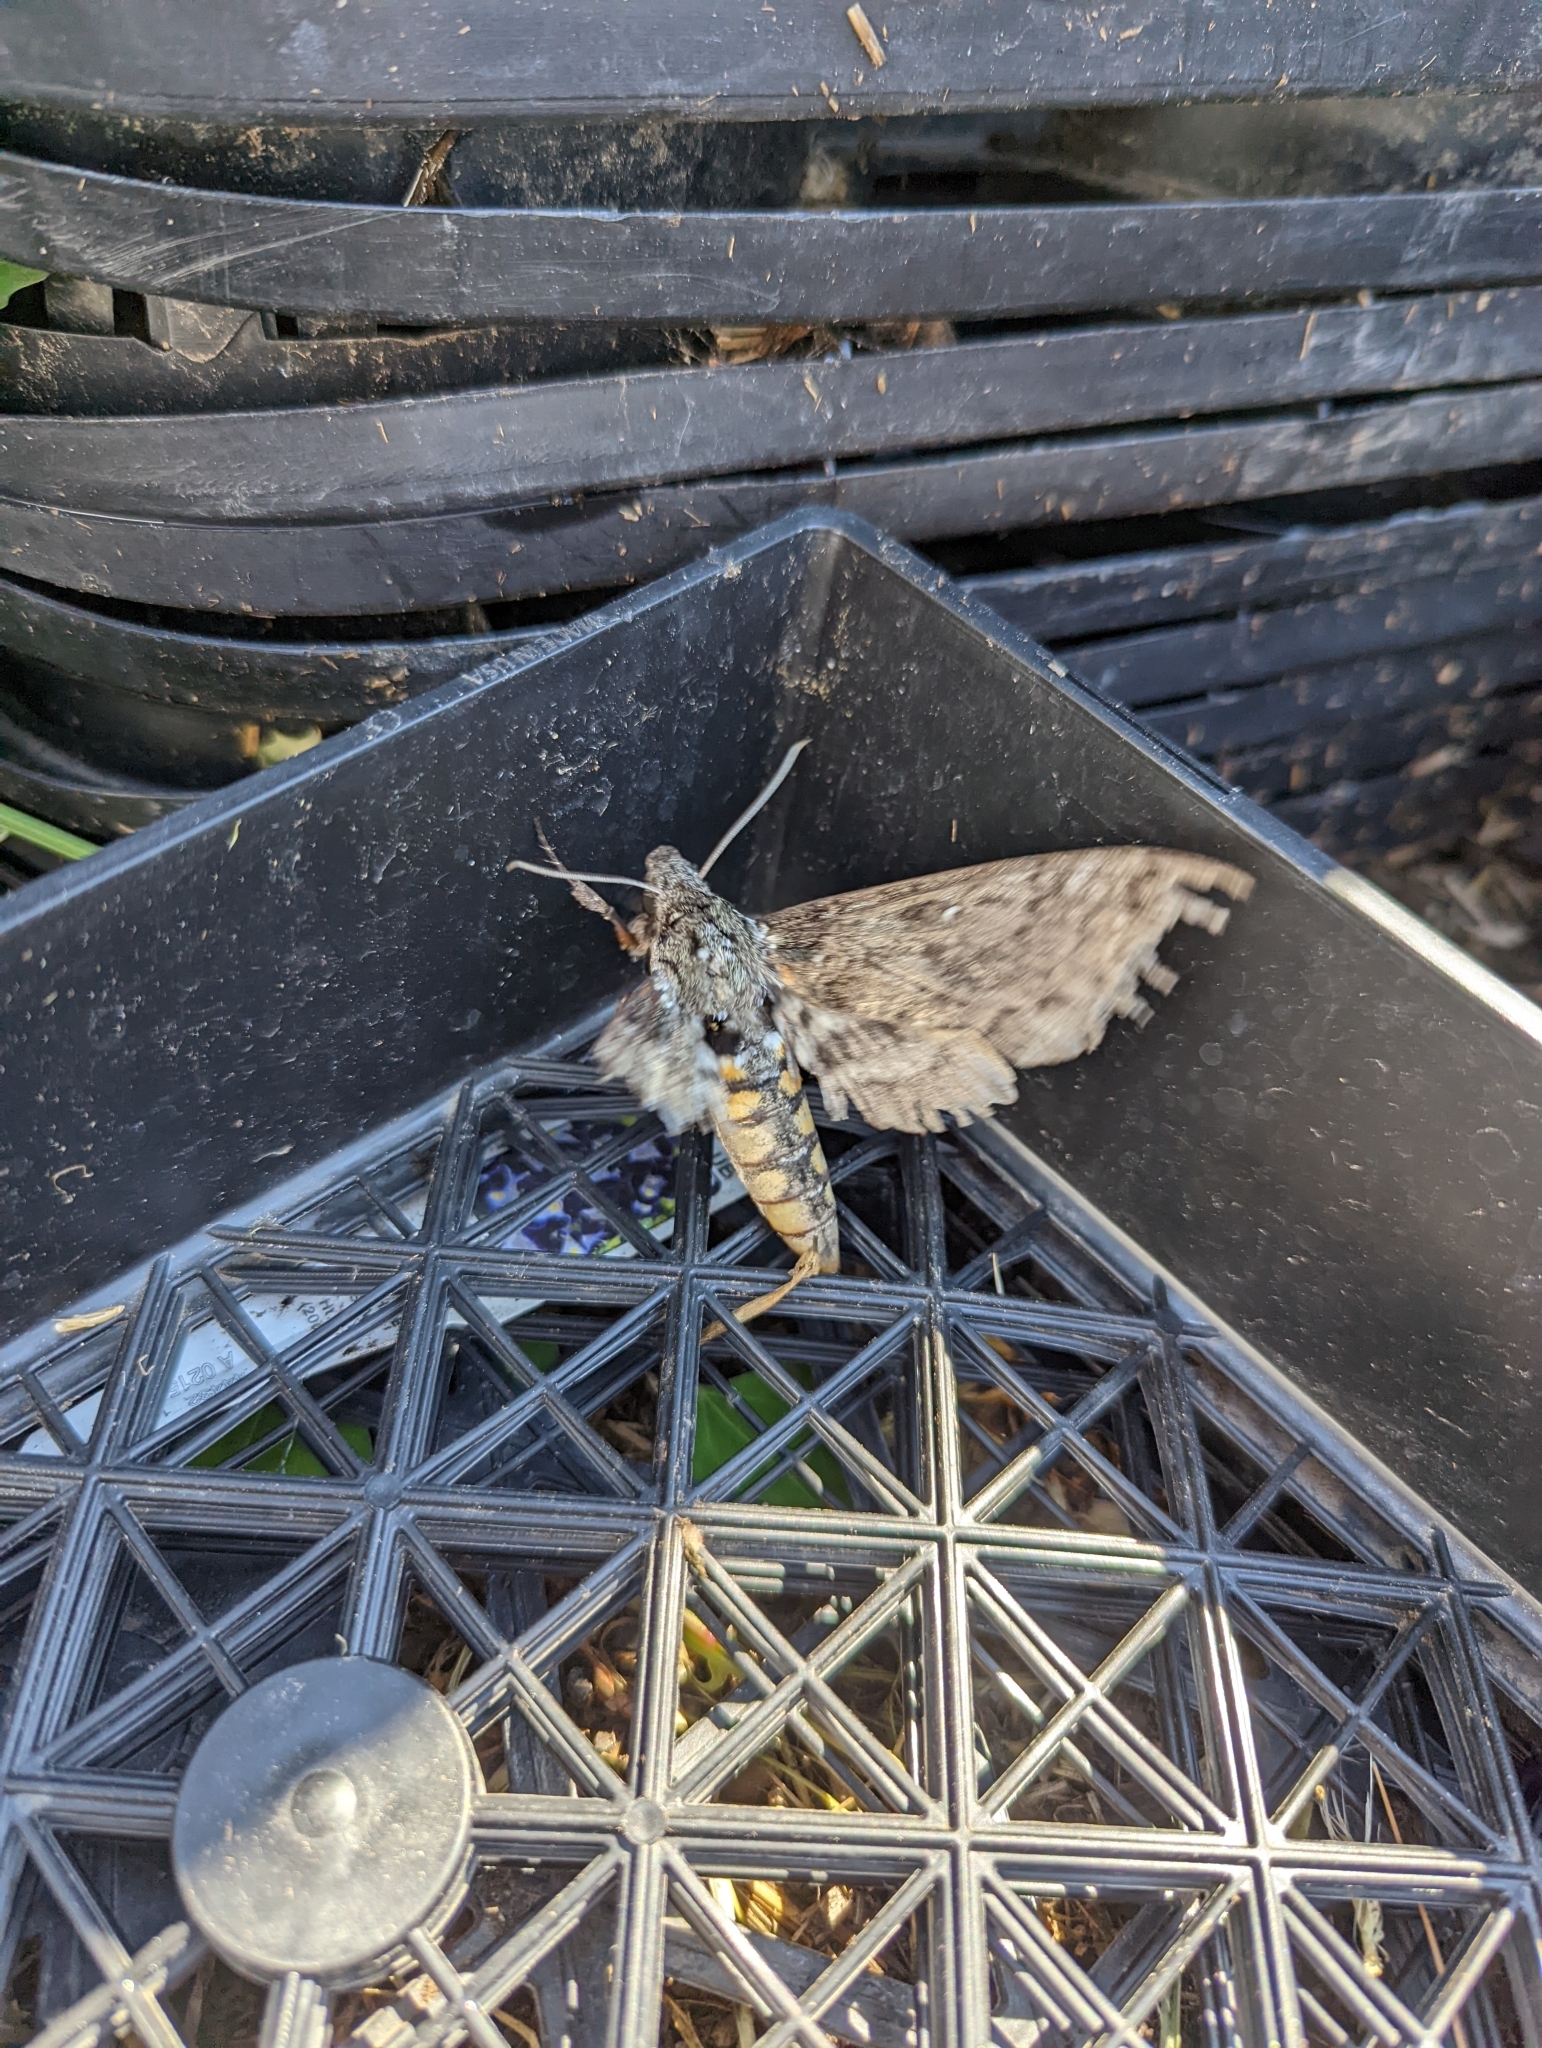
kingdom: Animalia
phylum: Arthropoda
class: Insecta
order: Lepidoptera
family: Sphingidae
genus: Manduca
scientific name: Manduca sexta
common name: Carolina sphinx
